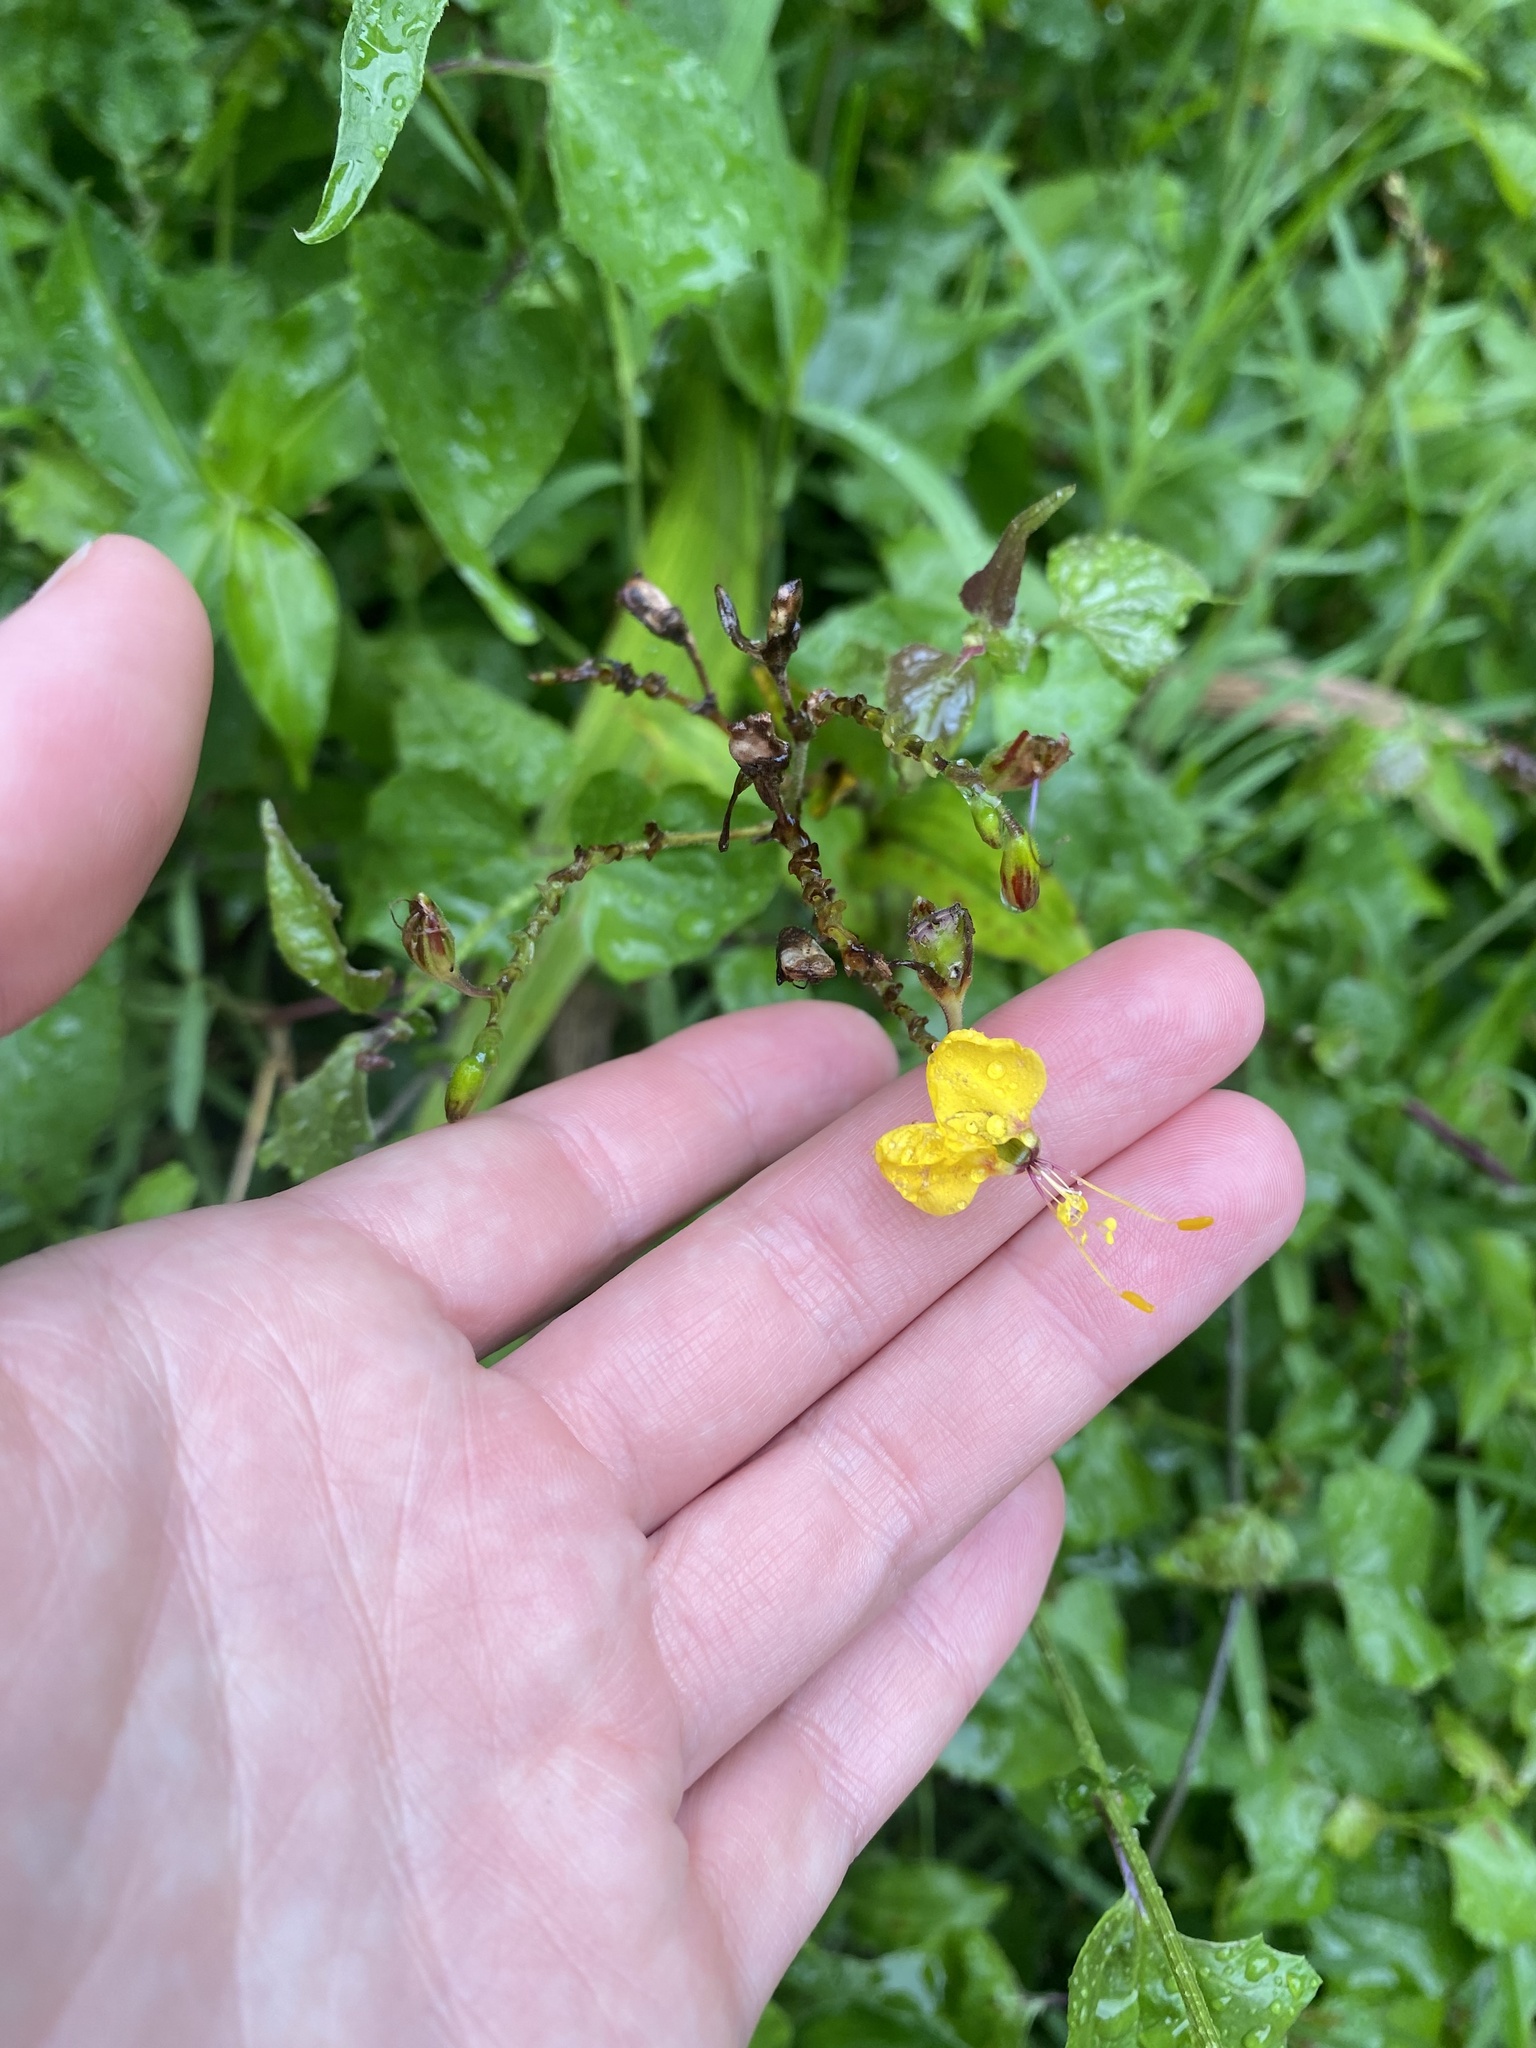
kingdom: Plantae
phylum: Tracheophyta
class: Liliopsida
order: Commelinales
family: Commelinaceae
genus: Aneilema
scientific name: Aneilema aequinoctiale
